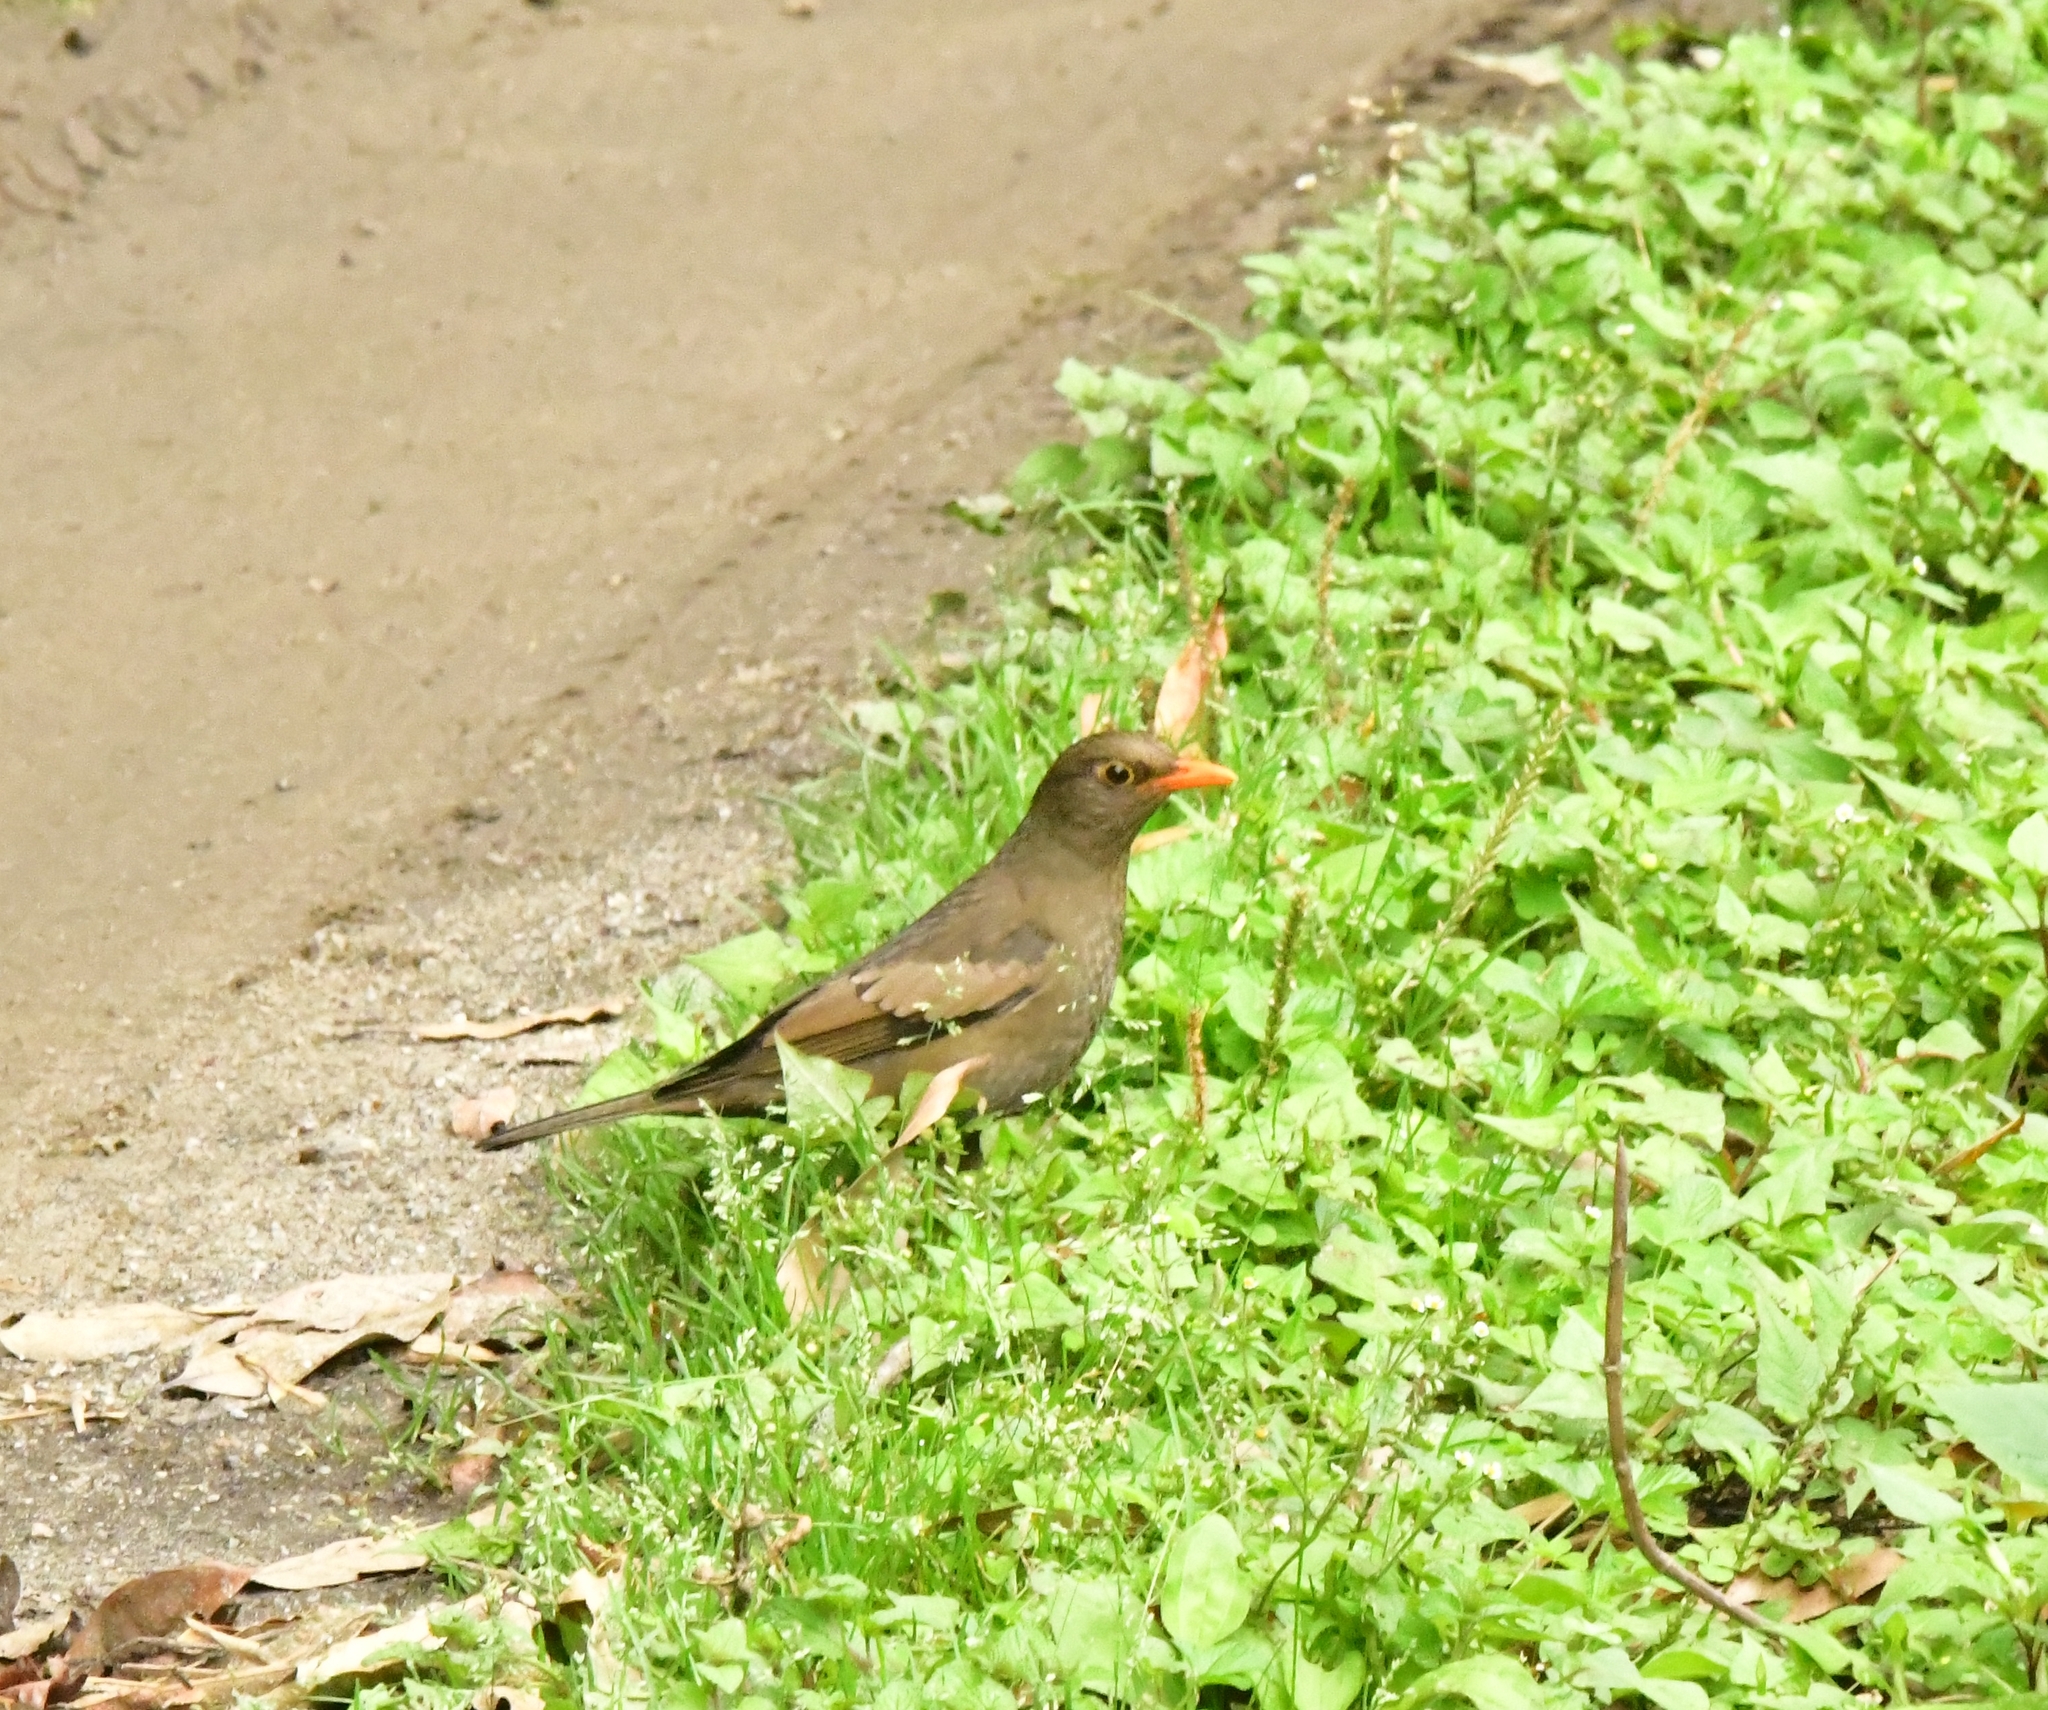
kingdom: Animalia
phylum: Chordata
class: Aves
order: Passeriformes
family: Turdidae
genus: Turdus
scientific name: Turdus boulboul
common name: Grey-winged blackbird
